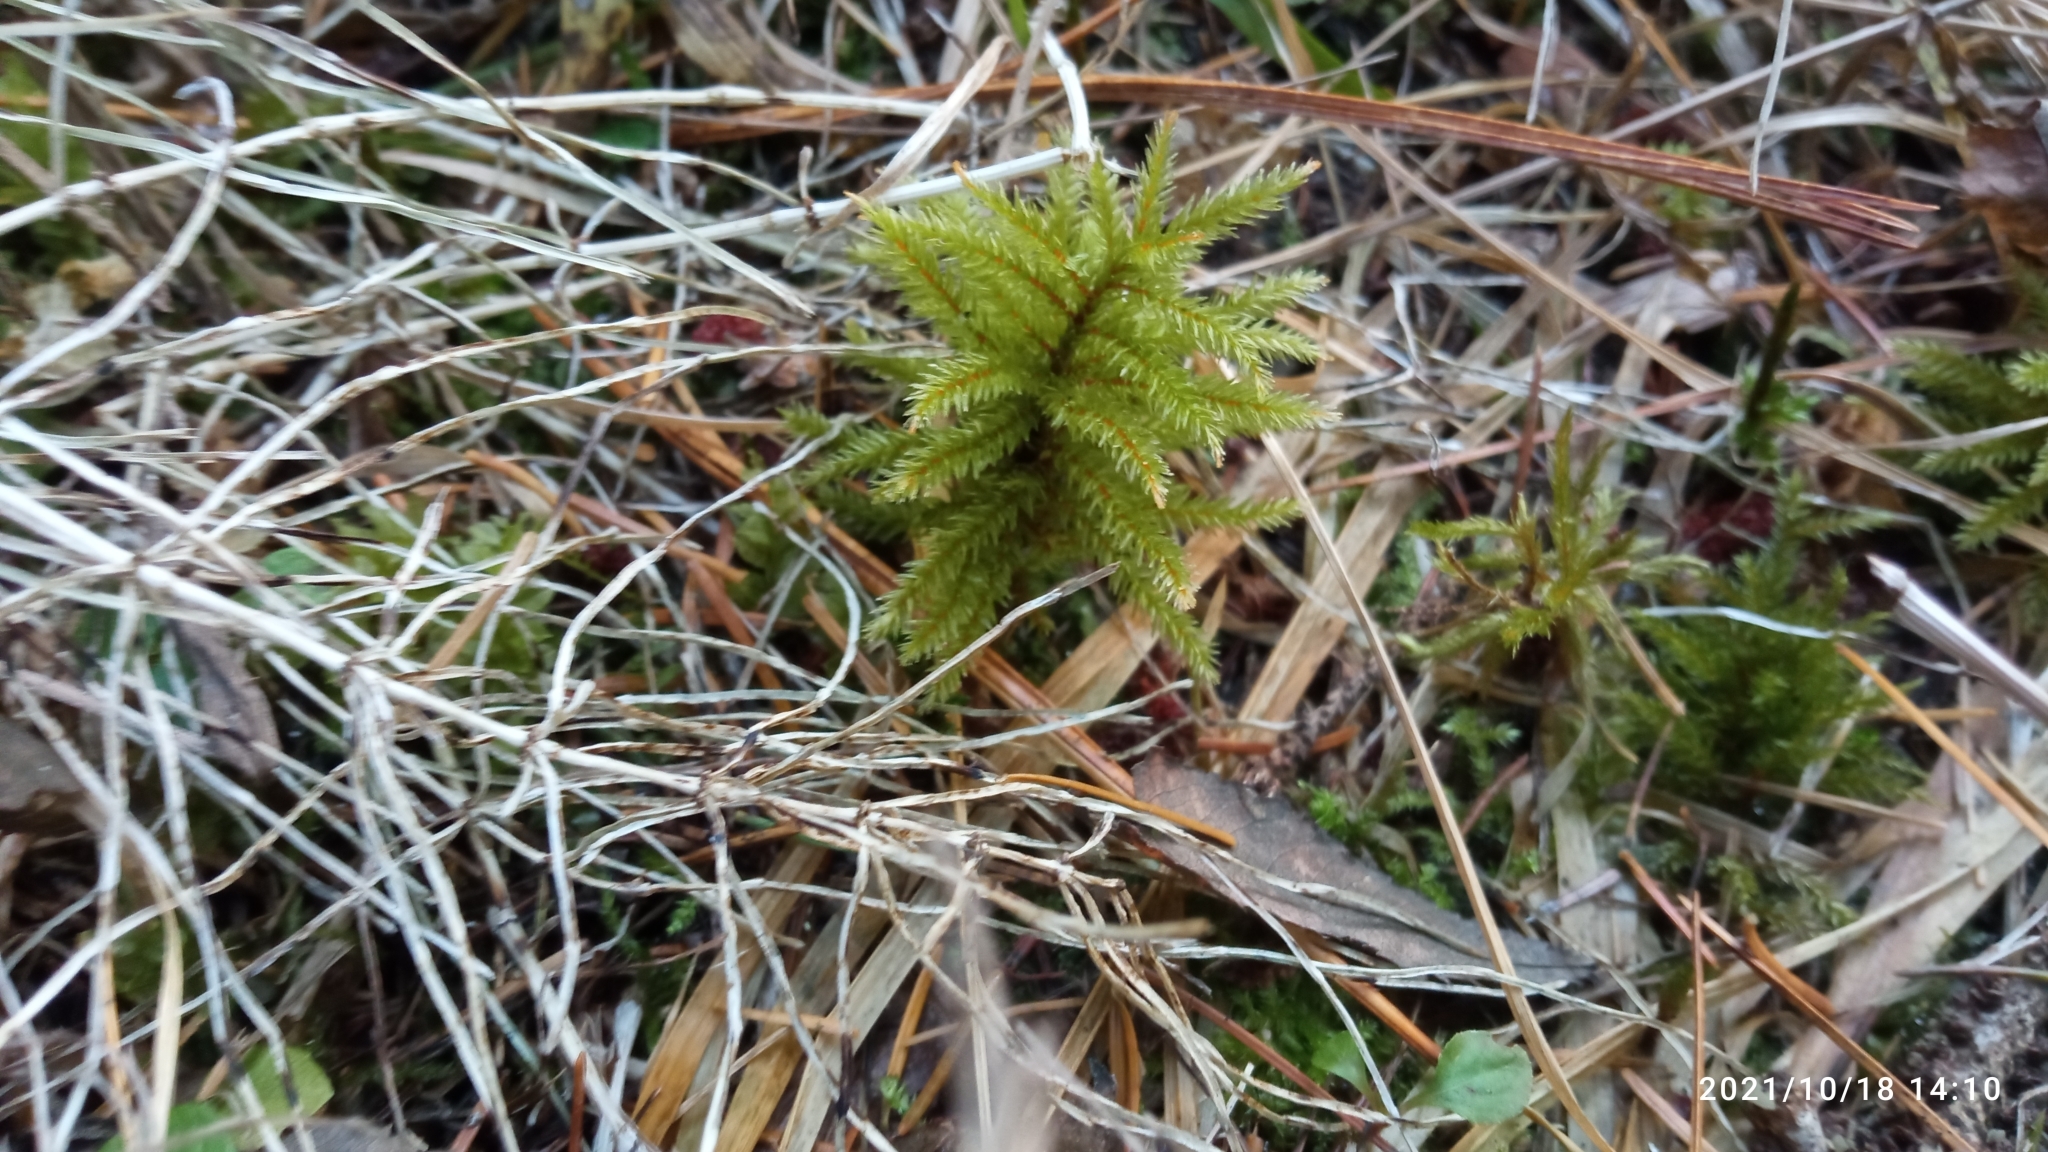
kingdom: Plantae
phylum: Bryophyta
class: Bryopsida
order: Hypnales
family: Climaciaceae
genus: Climacium
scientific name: Climacium dendroides
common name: Northern tree moss
